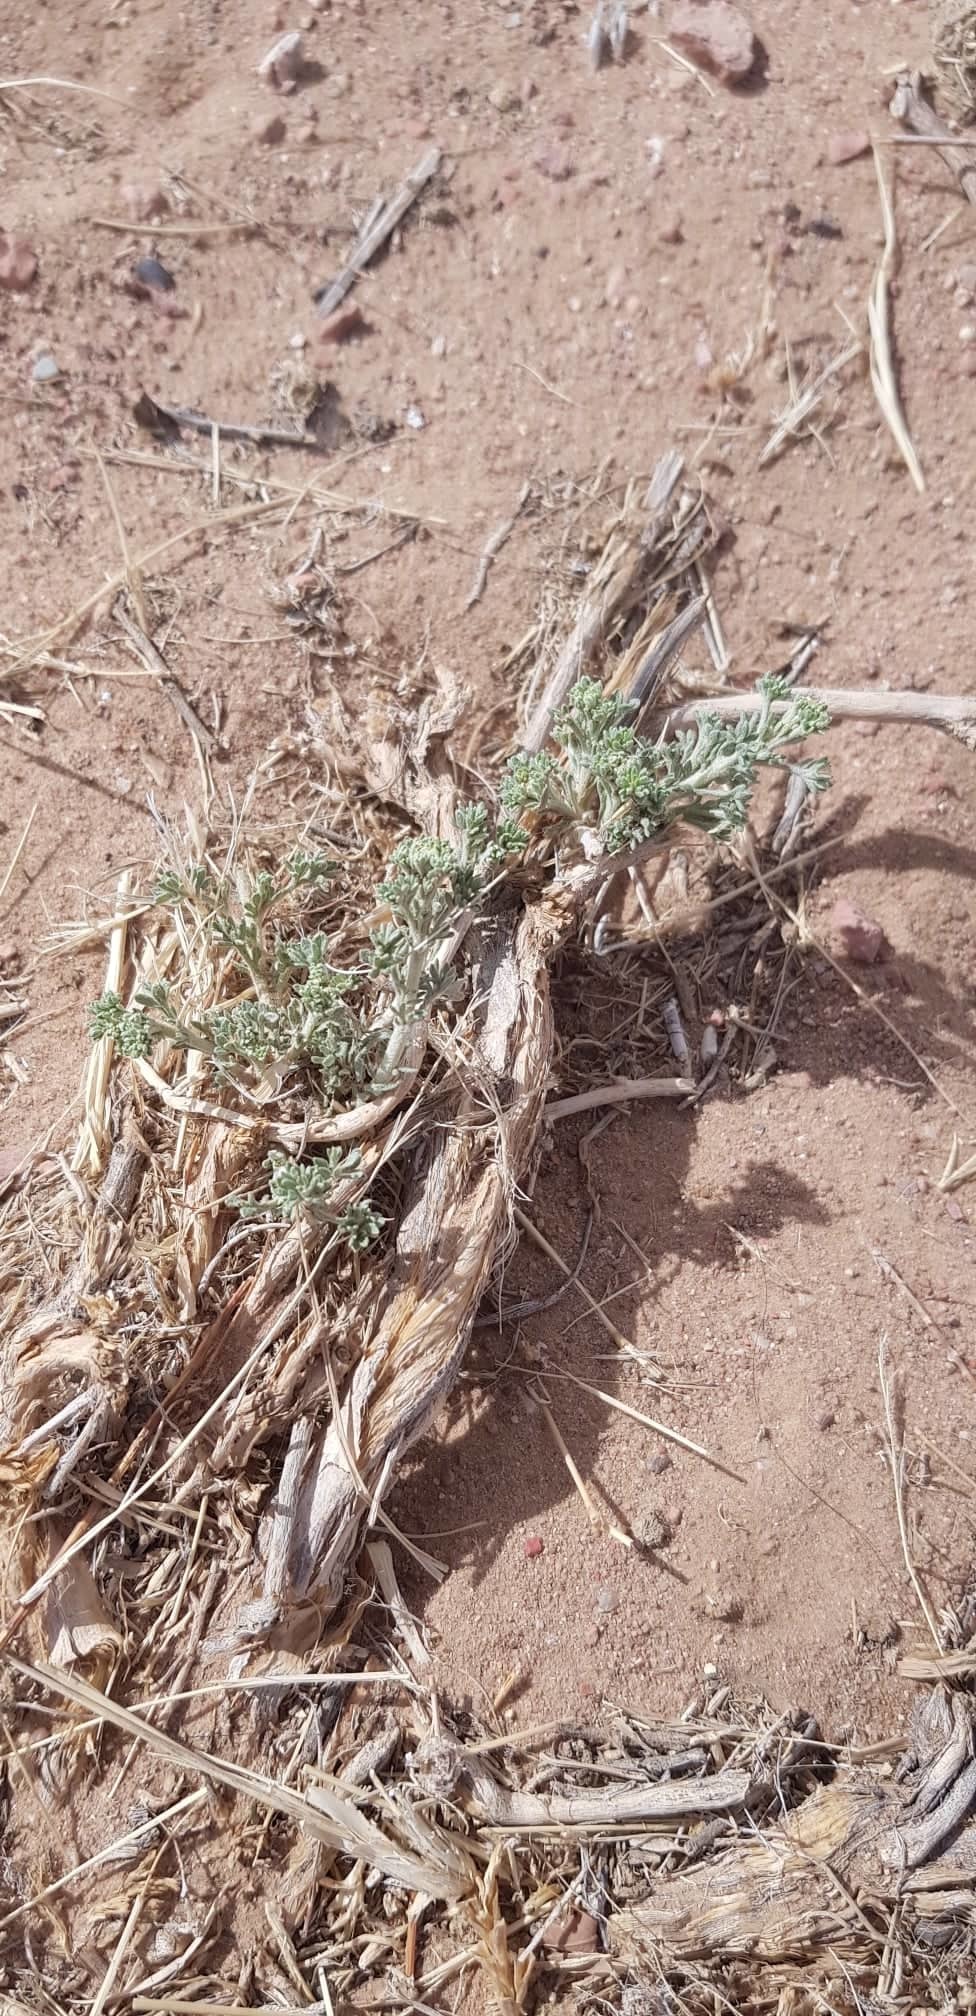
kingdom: Plantae
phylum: Tracheophyta
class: Magnoliopsida
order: Asterales
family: Asteraceae
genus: Artemisia
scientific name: Artemisia xerophytica
